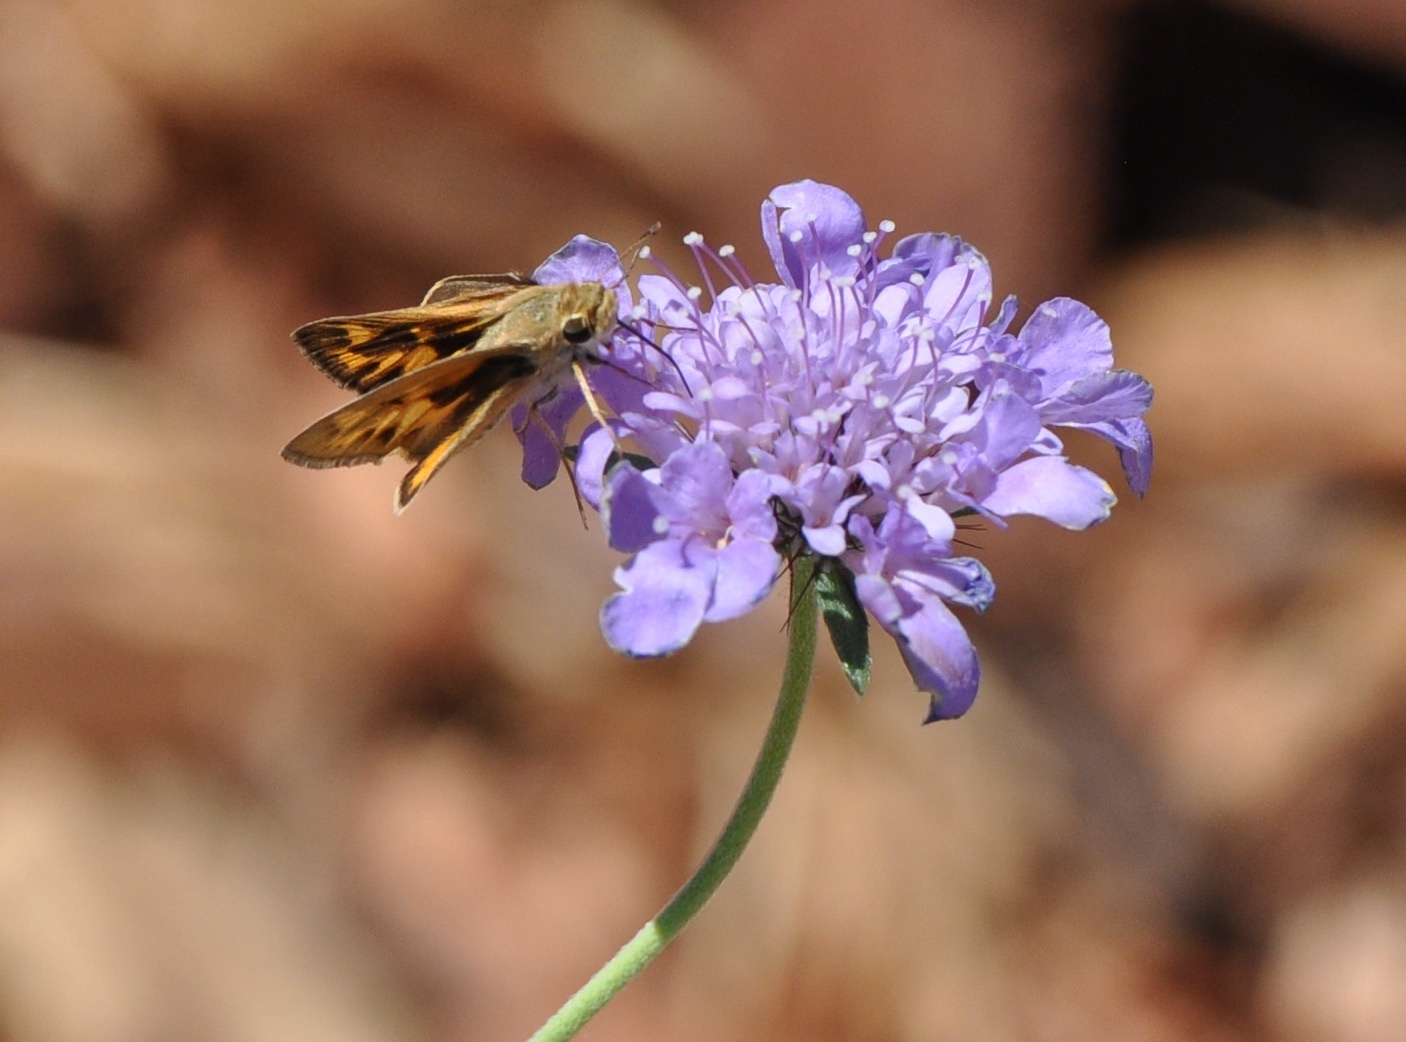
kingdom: Animalia
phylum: Arthropoda
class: Insecta
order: Lepidoptera
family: Hesperiidae
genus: Hylephila
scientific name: Hylephila phyleus
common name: Fiery skipper
